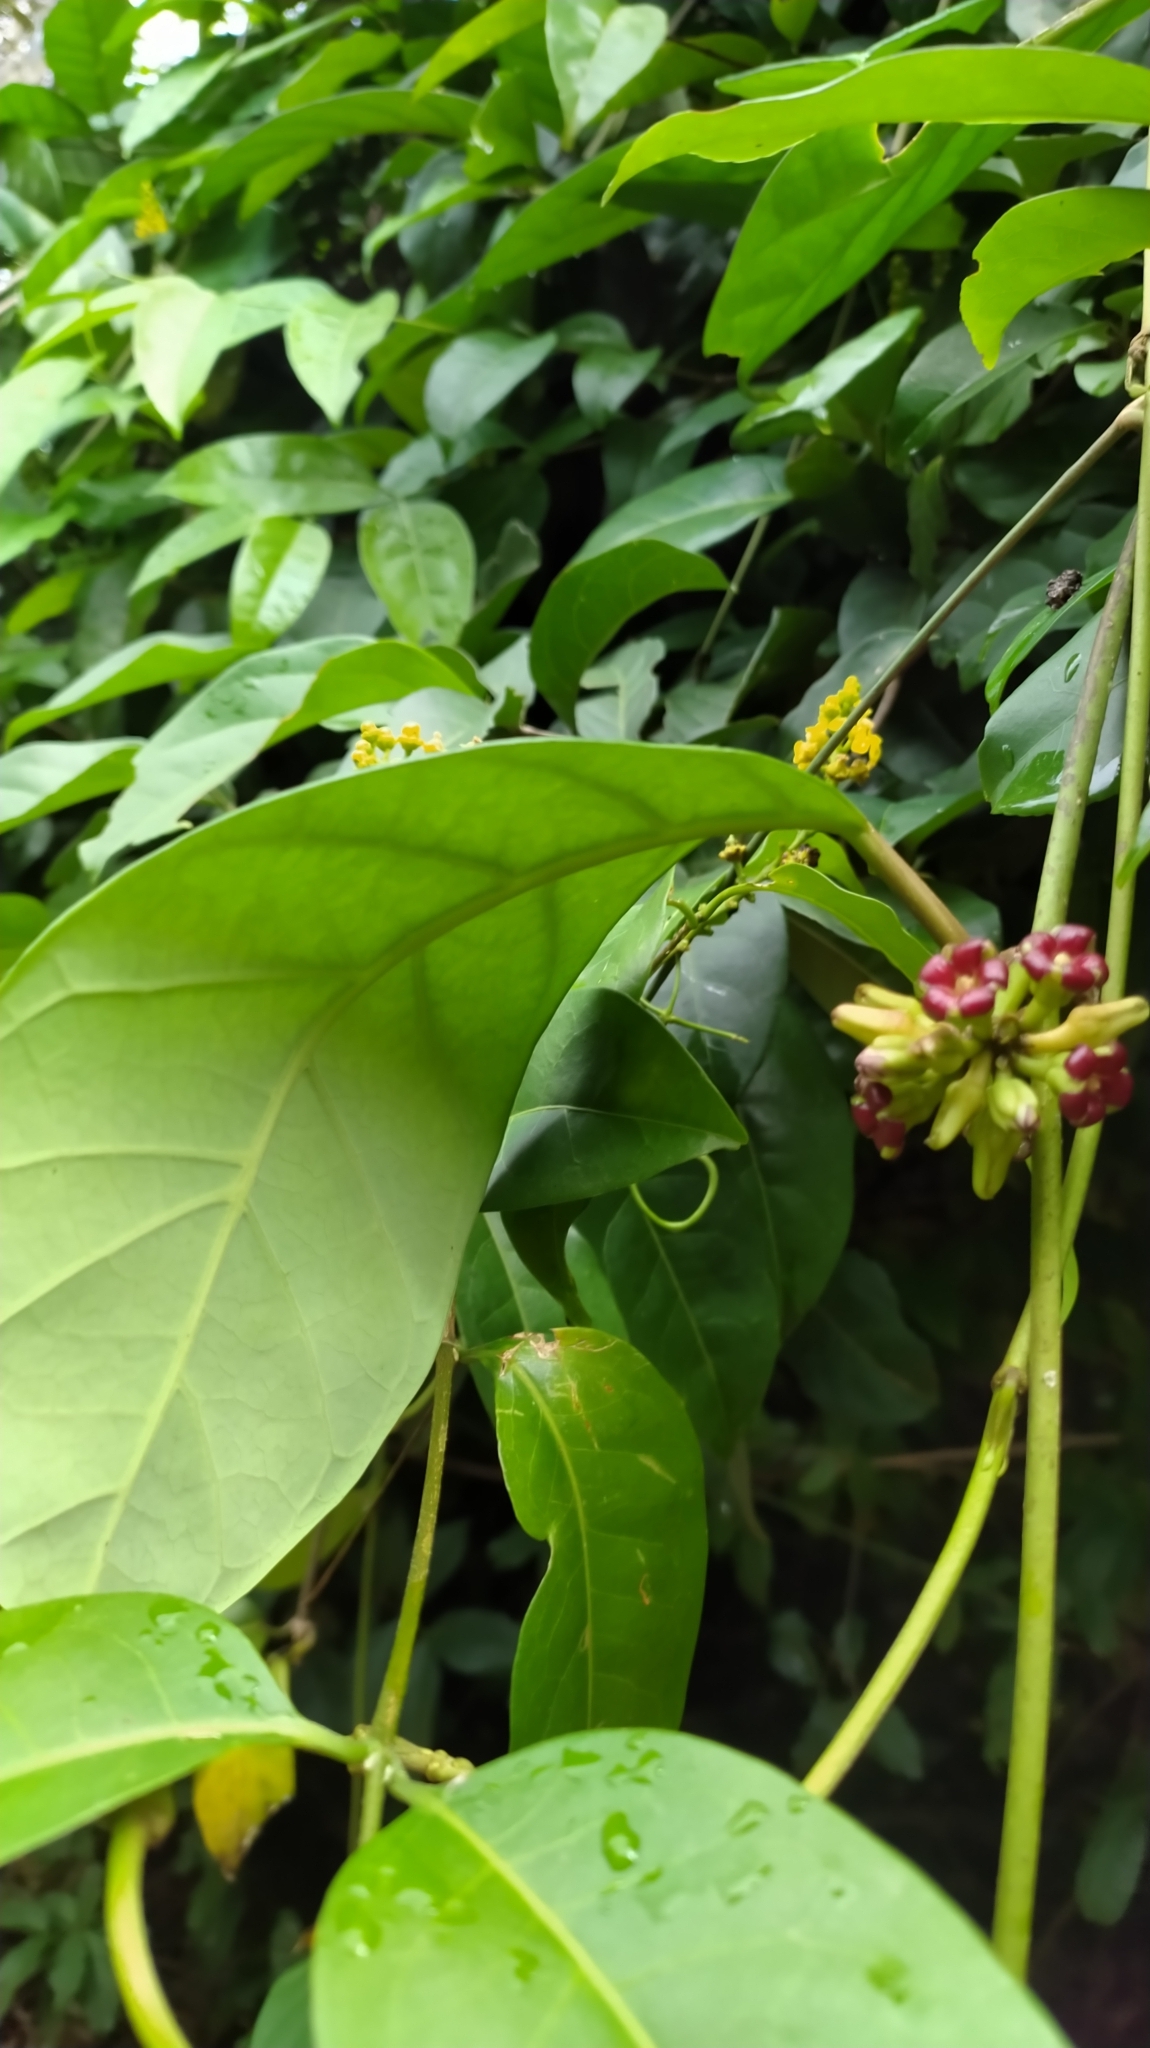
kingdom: Plantae
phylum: Tracheophyta
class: Magnoliopsida
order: Gentianales
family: Apocynaceae
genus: Ruehssia
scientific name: Ruehssia macrophylla
